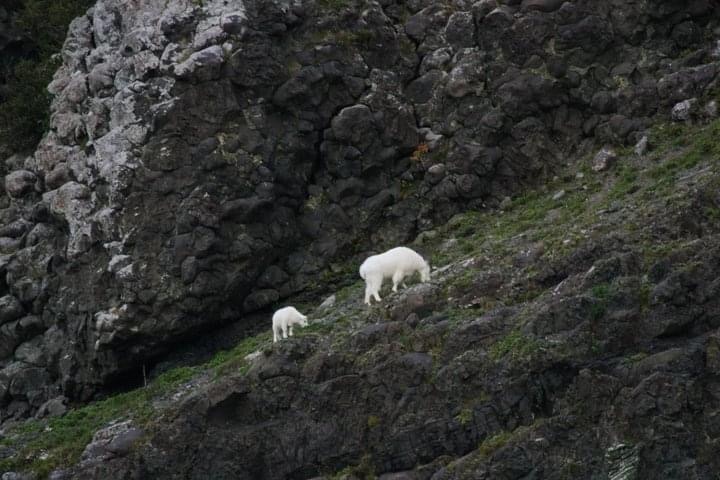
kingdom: Animalia
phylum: Chordata
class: Mammalia
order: Artiodactyla
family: Bovidae
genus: Oreamnos
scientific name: Oreamnos americanus
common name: Mountain goat
